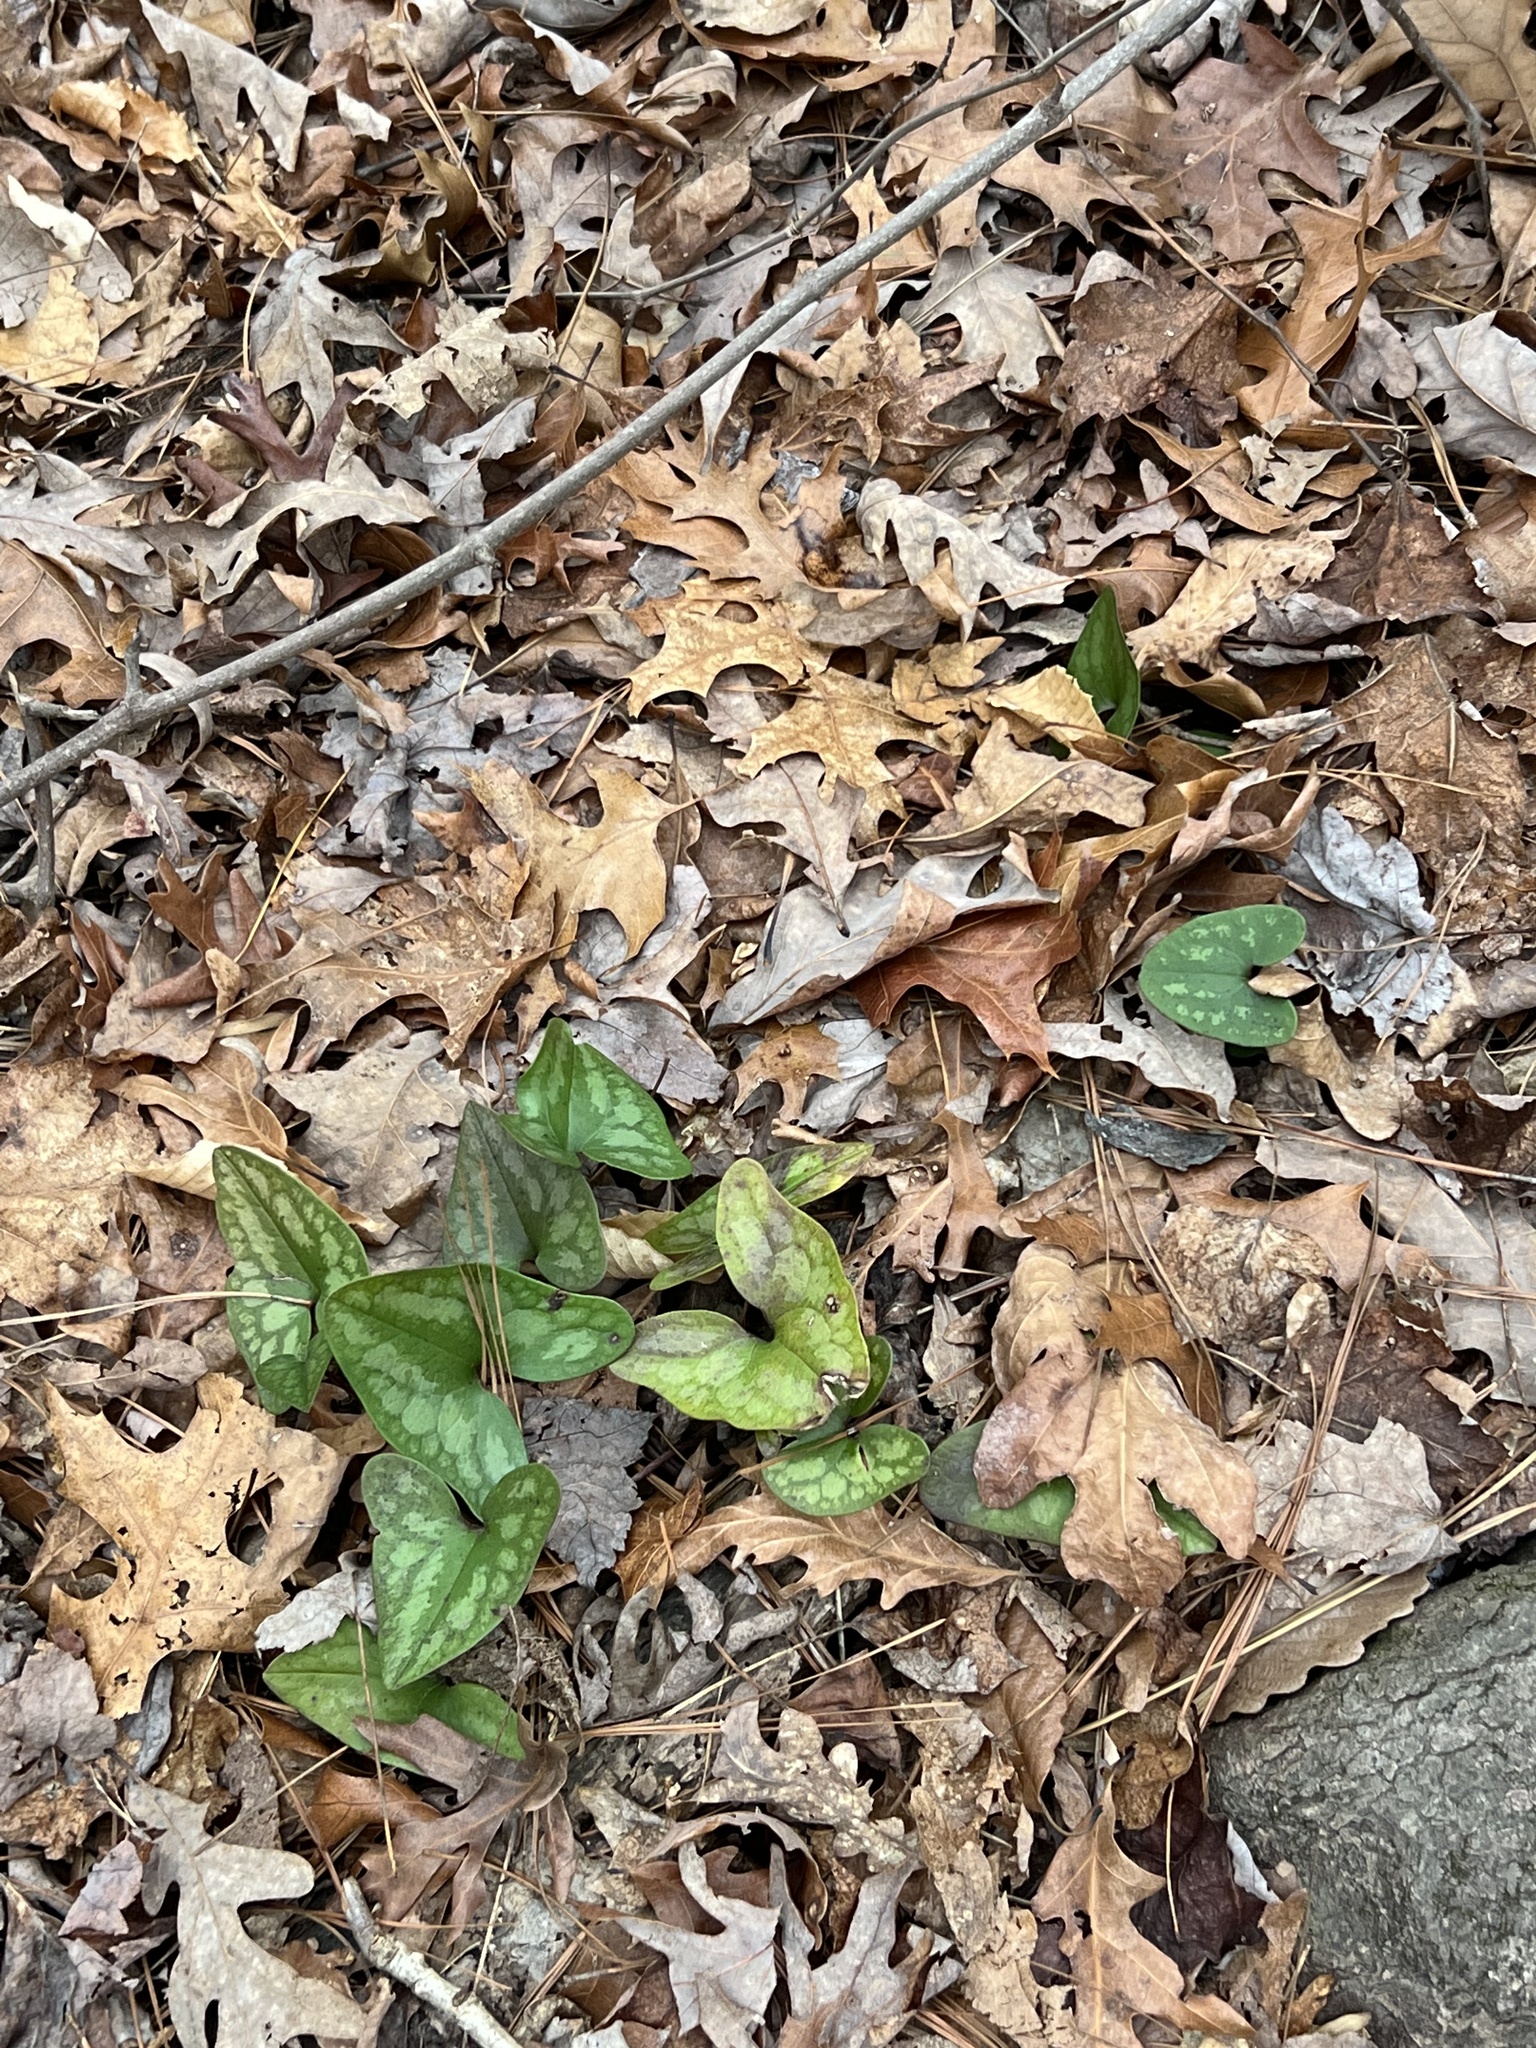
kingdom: Plantae
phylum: Tracheophyta
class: Magnoliopsida
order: Piperales
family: Aristolochiaceae
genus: Hexastylis
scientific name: Hexastylis arifolia
